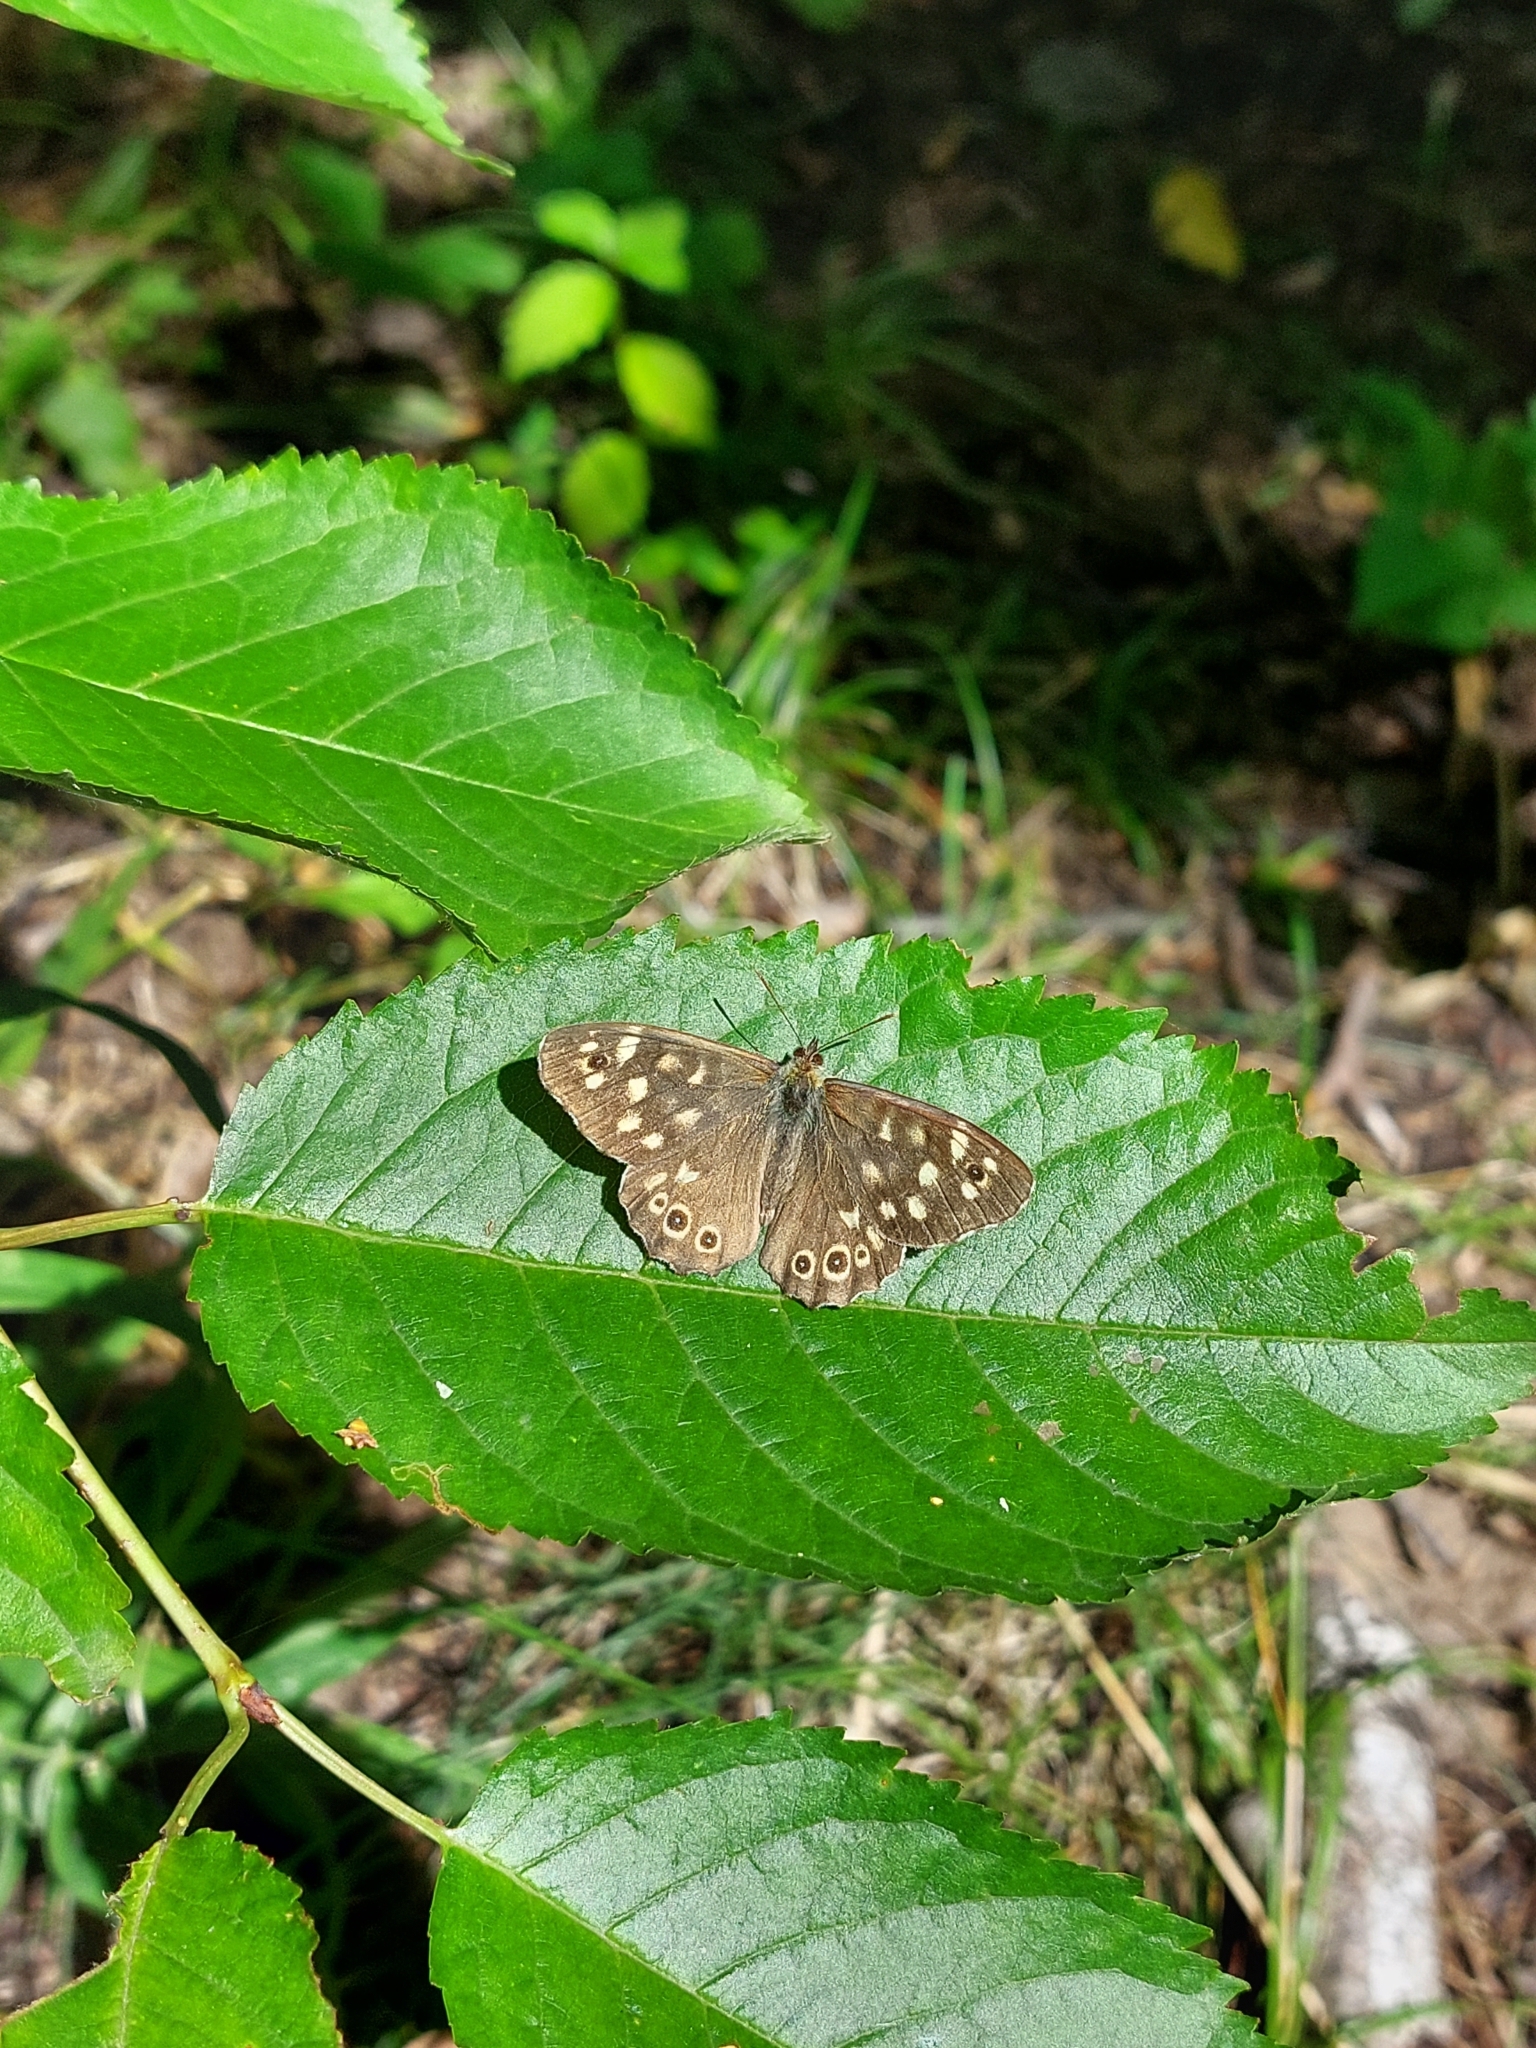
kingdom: Animalia
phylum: Arthropoda
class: Insecta
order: Lepidoptera
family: Nymphalidae
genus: Pararge
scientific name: Pararge aegeria
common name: Speckled wood
